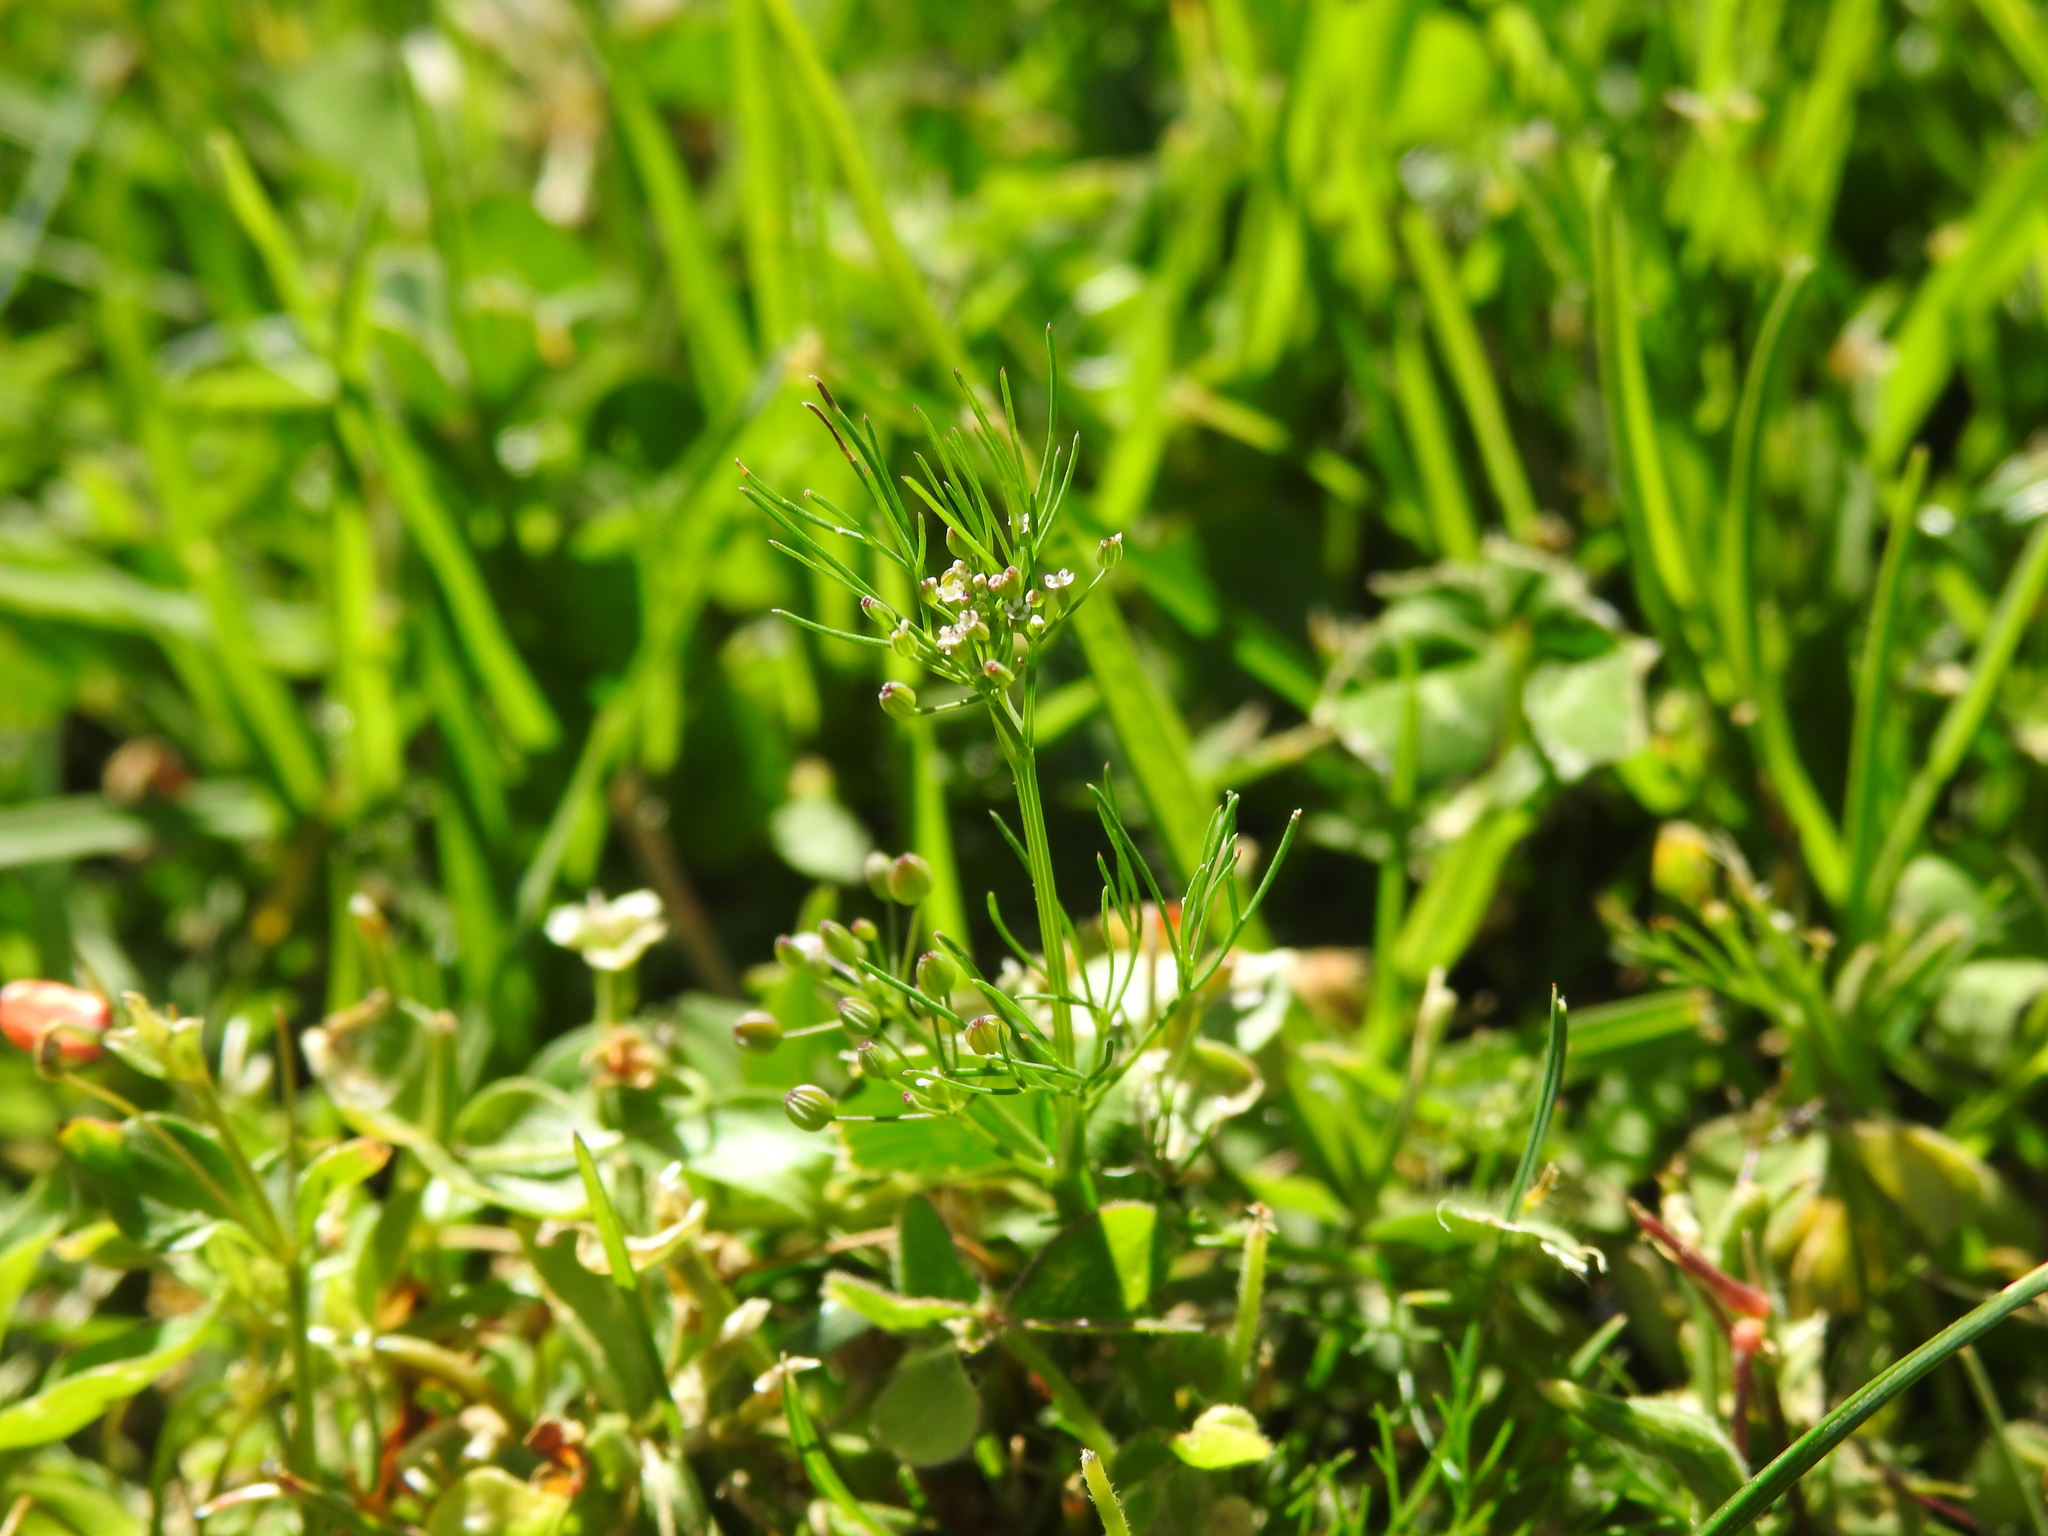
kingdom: Plantae
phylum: Tracheophyta
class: Magnoliopsida
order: Apiales
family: Apiaceae
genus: Cyclospermum
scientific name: Cyclospermum leptophyllum
